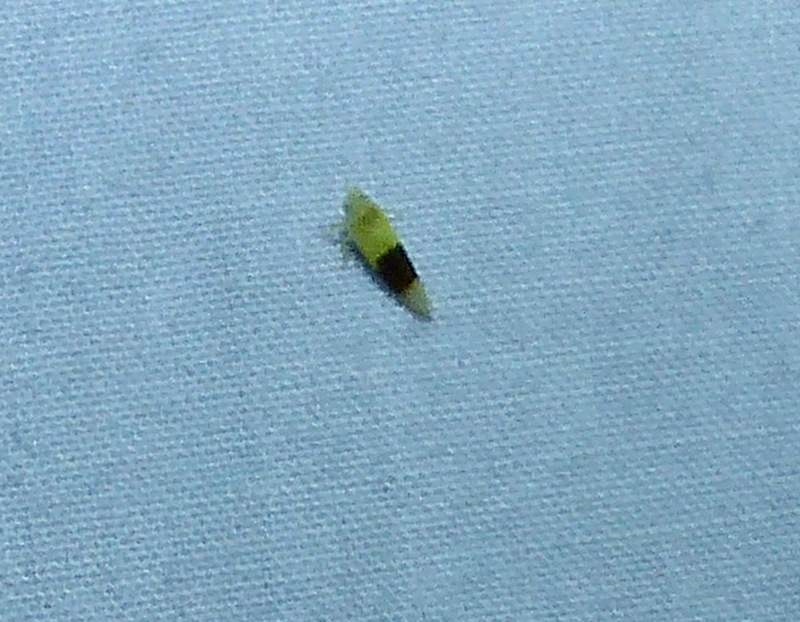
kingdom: Animalia
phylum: Arthropoda
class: Insecta
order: Hemiptera
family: Cicadellidae
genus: Typhlocyba
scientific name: Typhlocyba transviridis
